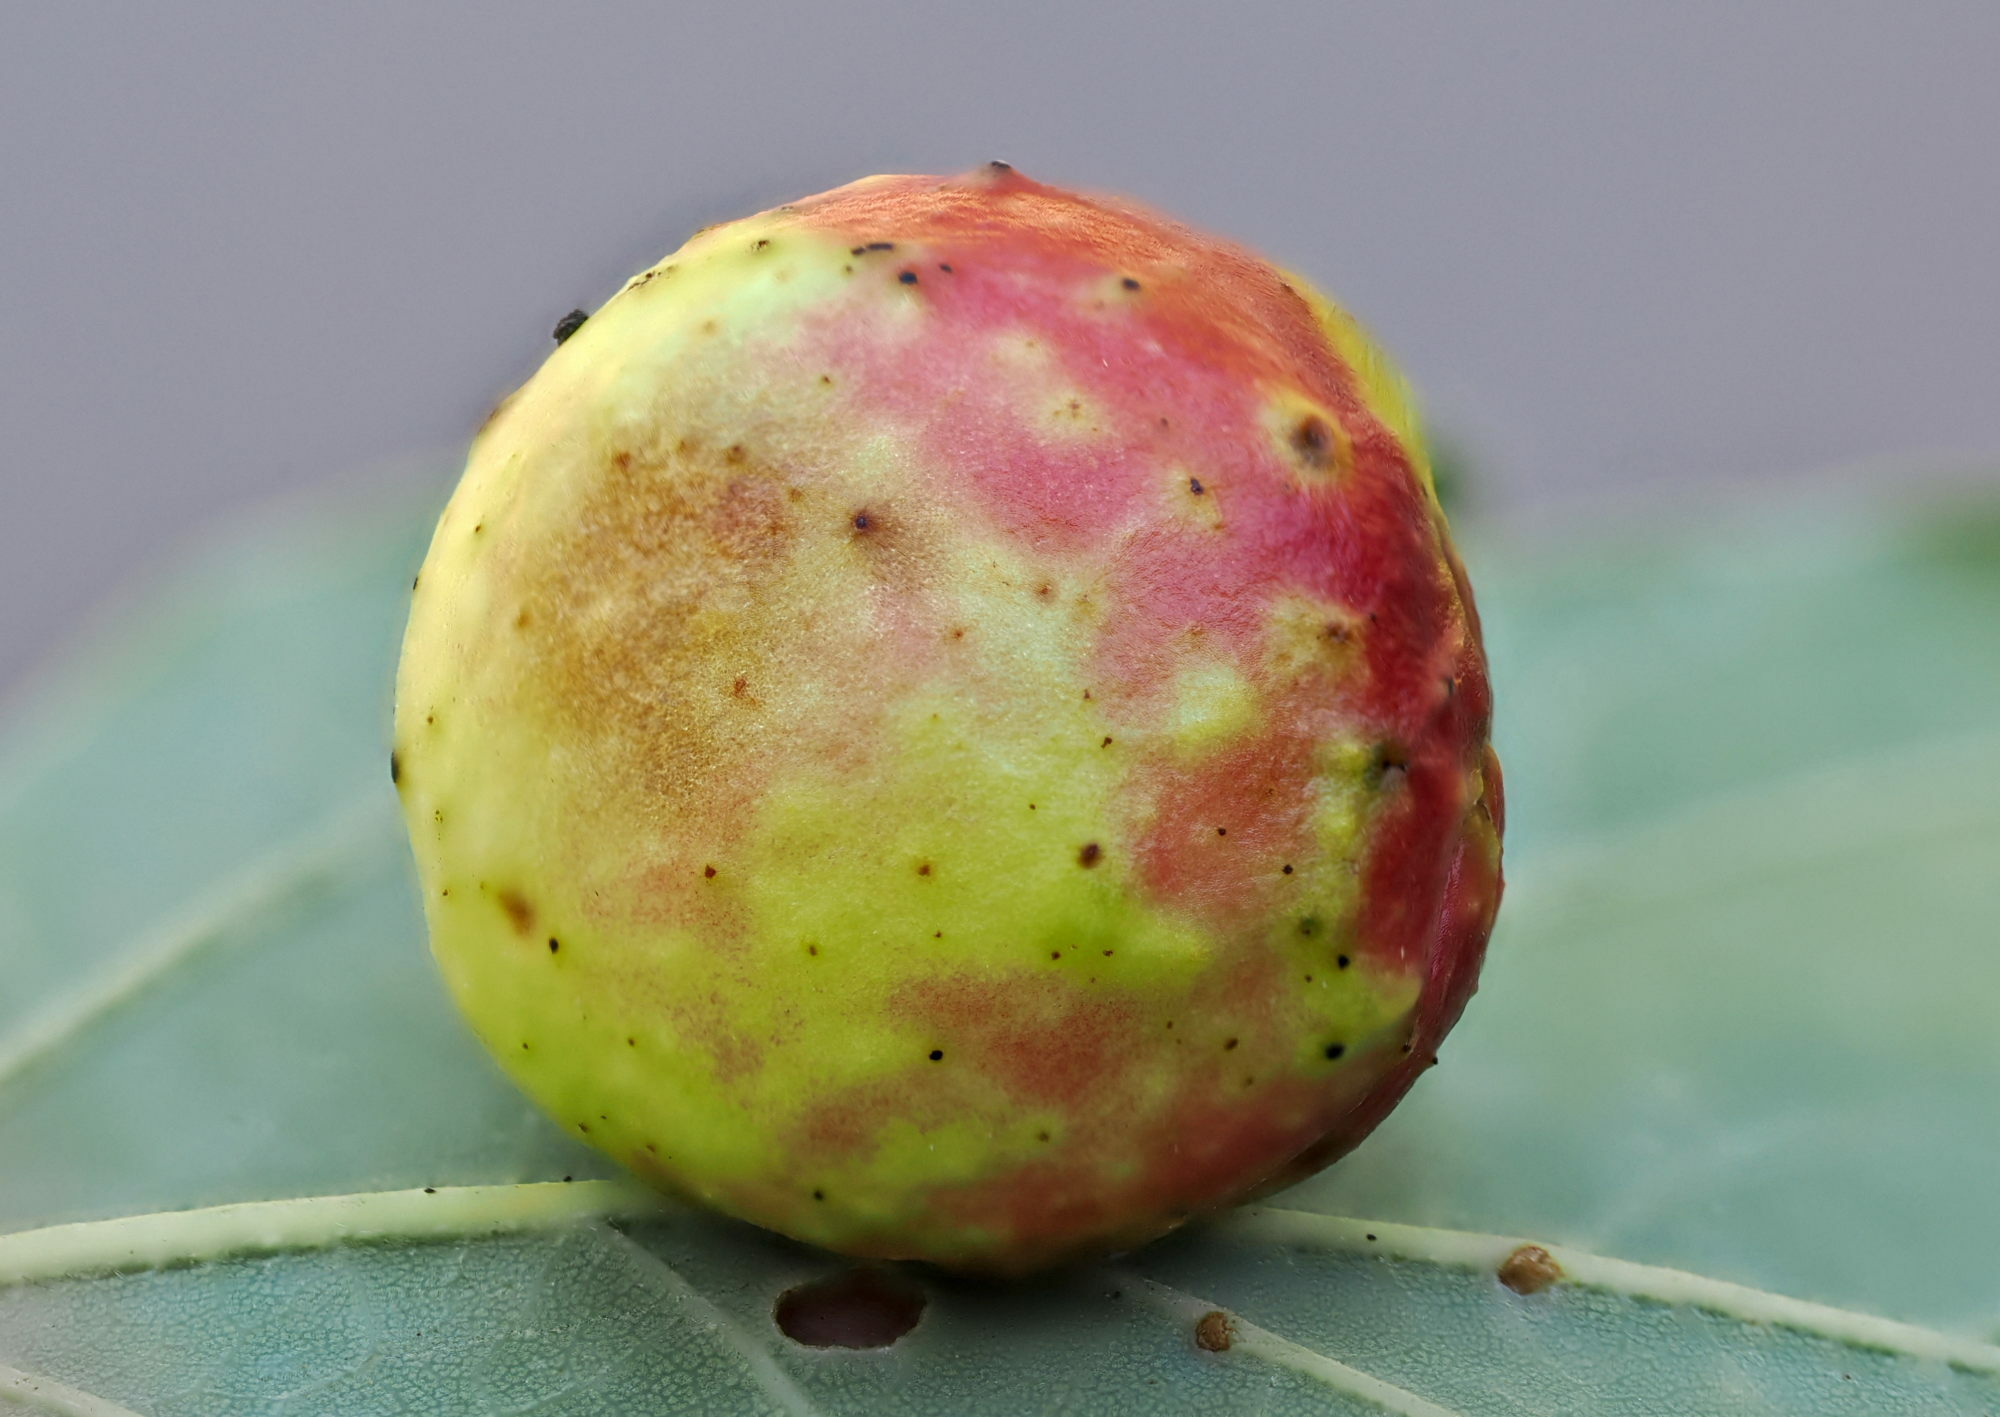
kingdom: Animalia
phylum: Arthropoda
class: Insecta
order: Hymenoptera
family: Cynipidae
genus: Cynips
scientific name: Cynips quercusfolii
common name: Cherry gall
